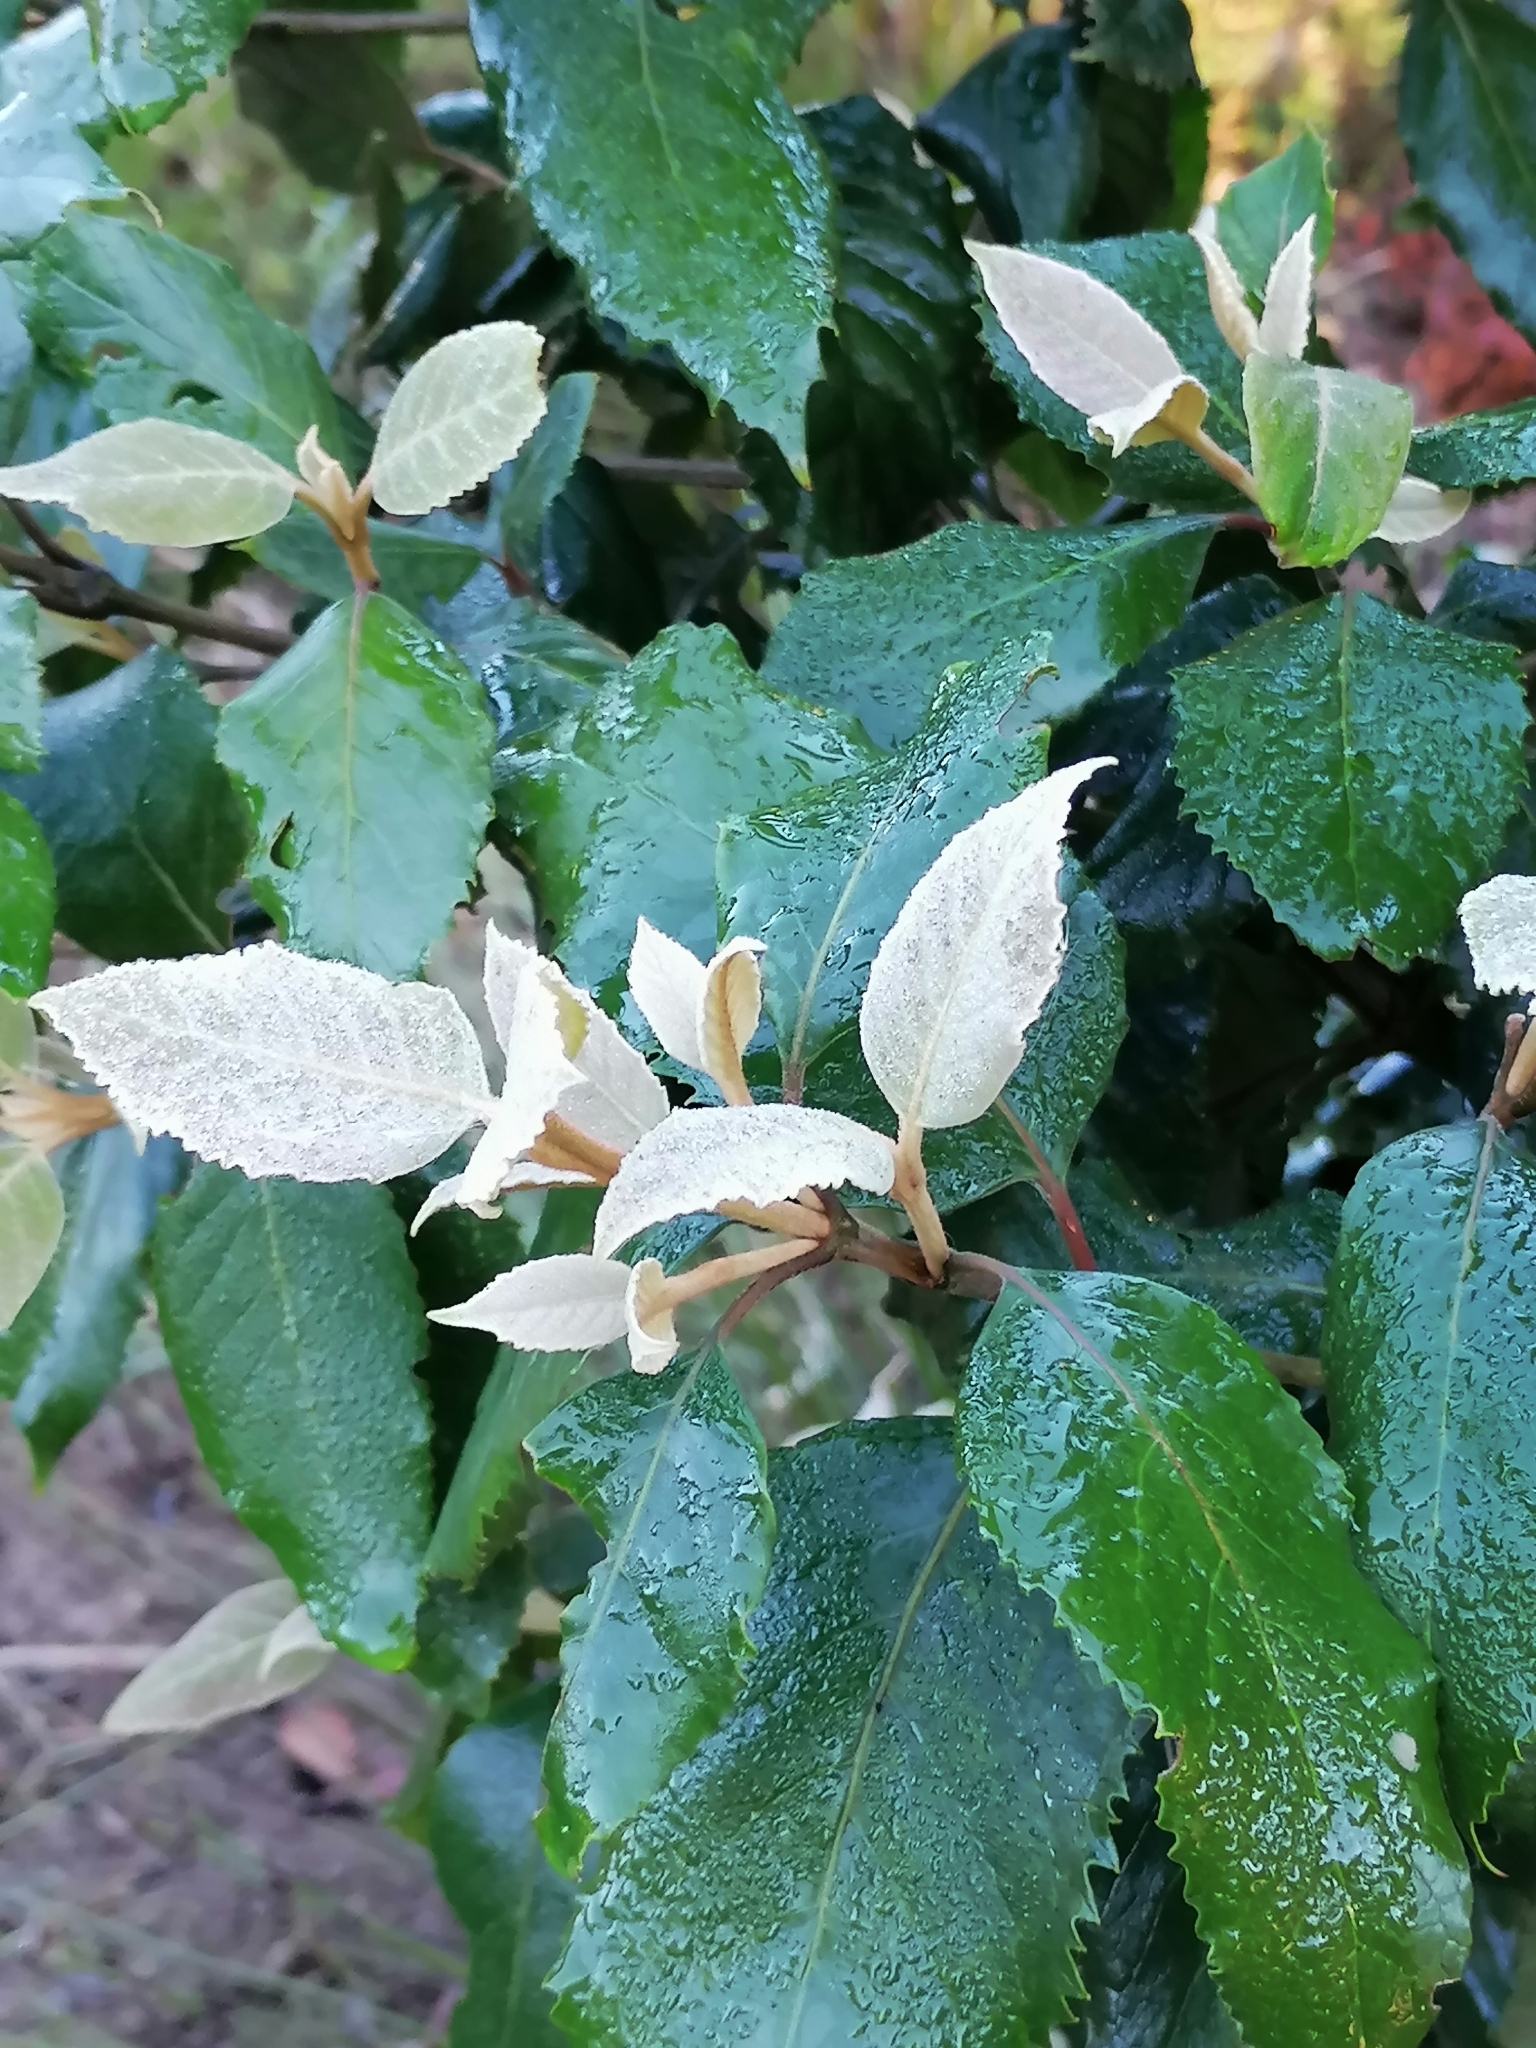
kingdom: Plantae
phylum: Tracheophyta
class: Magnoliopsida
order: Cornales
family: Curtisiaceae
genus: Curtisia
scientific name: Curtisia dentata
